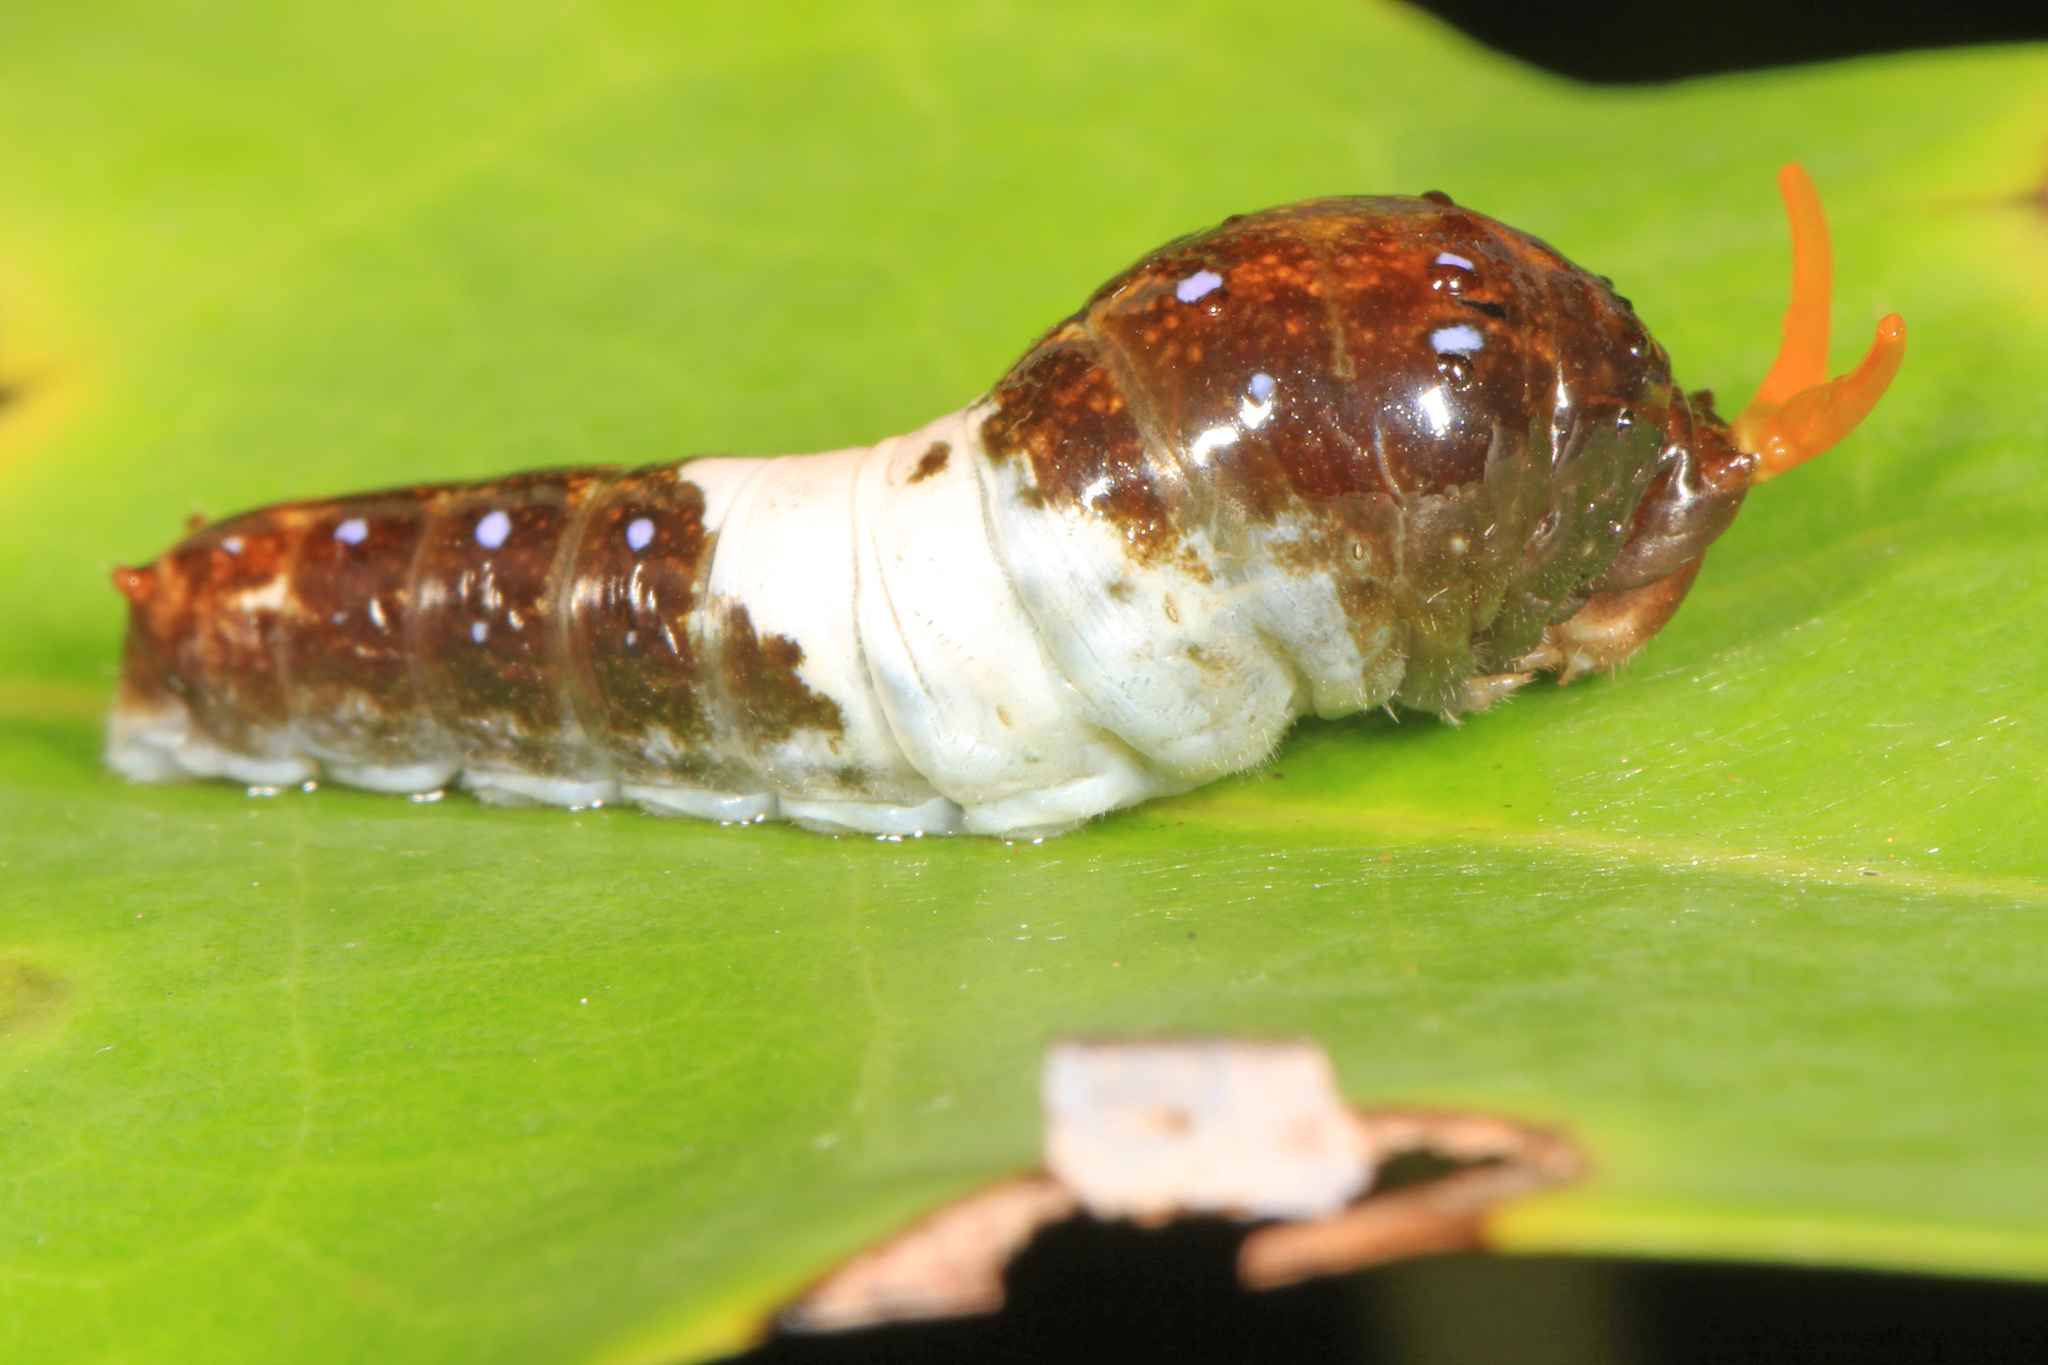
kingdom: Animalia
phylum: Arthropoda
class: Insecta
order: Lepidoptera
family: Papilionidae
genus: Papilio
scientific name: Papilio glaucus
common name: Tiger swallowtail
